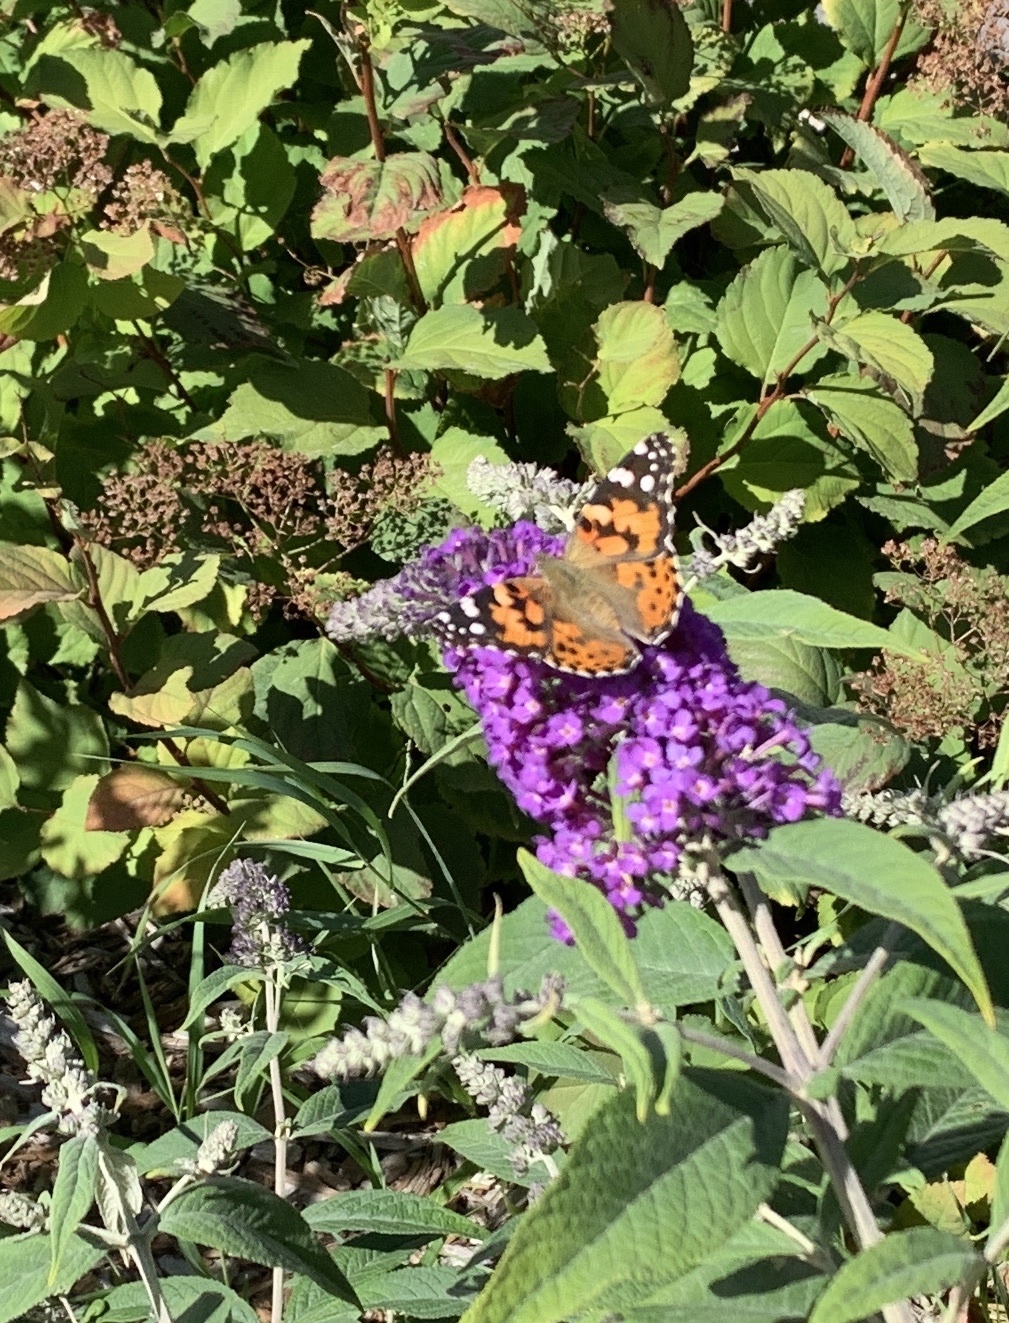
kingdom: Animalia
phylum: Arthropoda
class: Insecta
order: Lepidoptera
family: Nymphalidae
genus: Vanessa
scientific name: Vanessa cardui
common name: Painted lady
